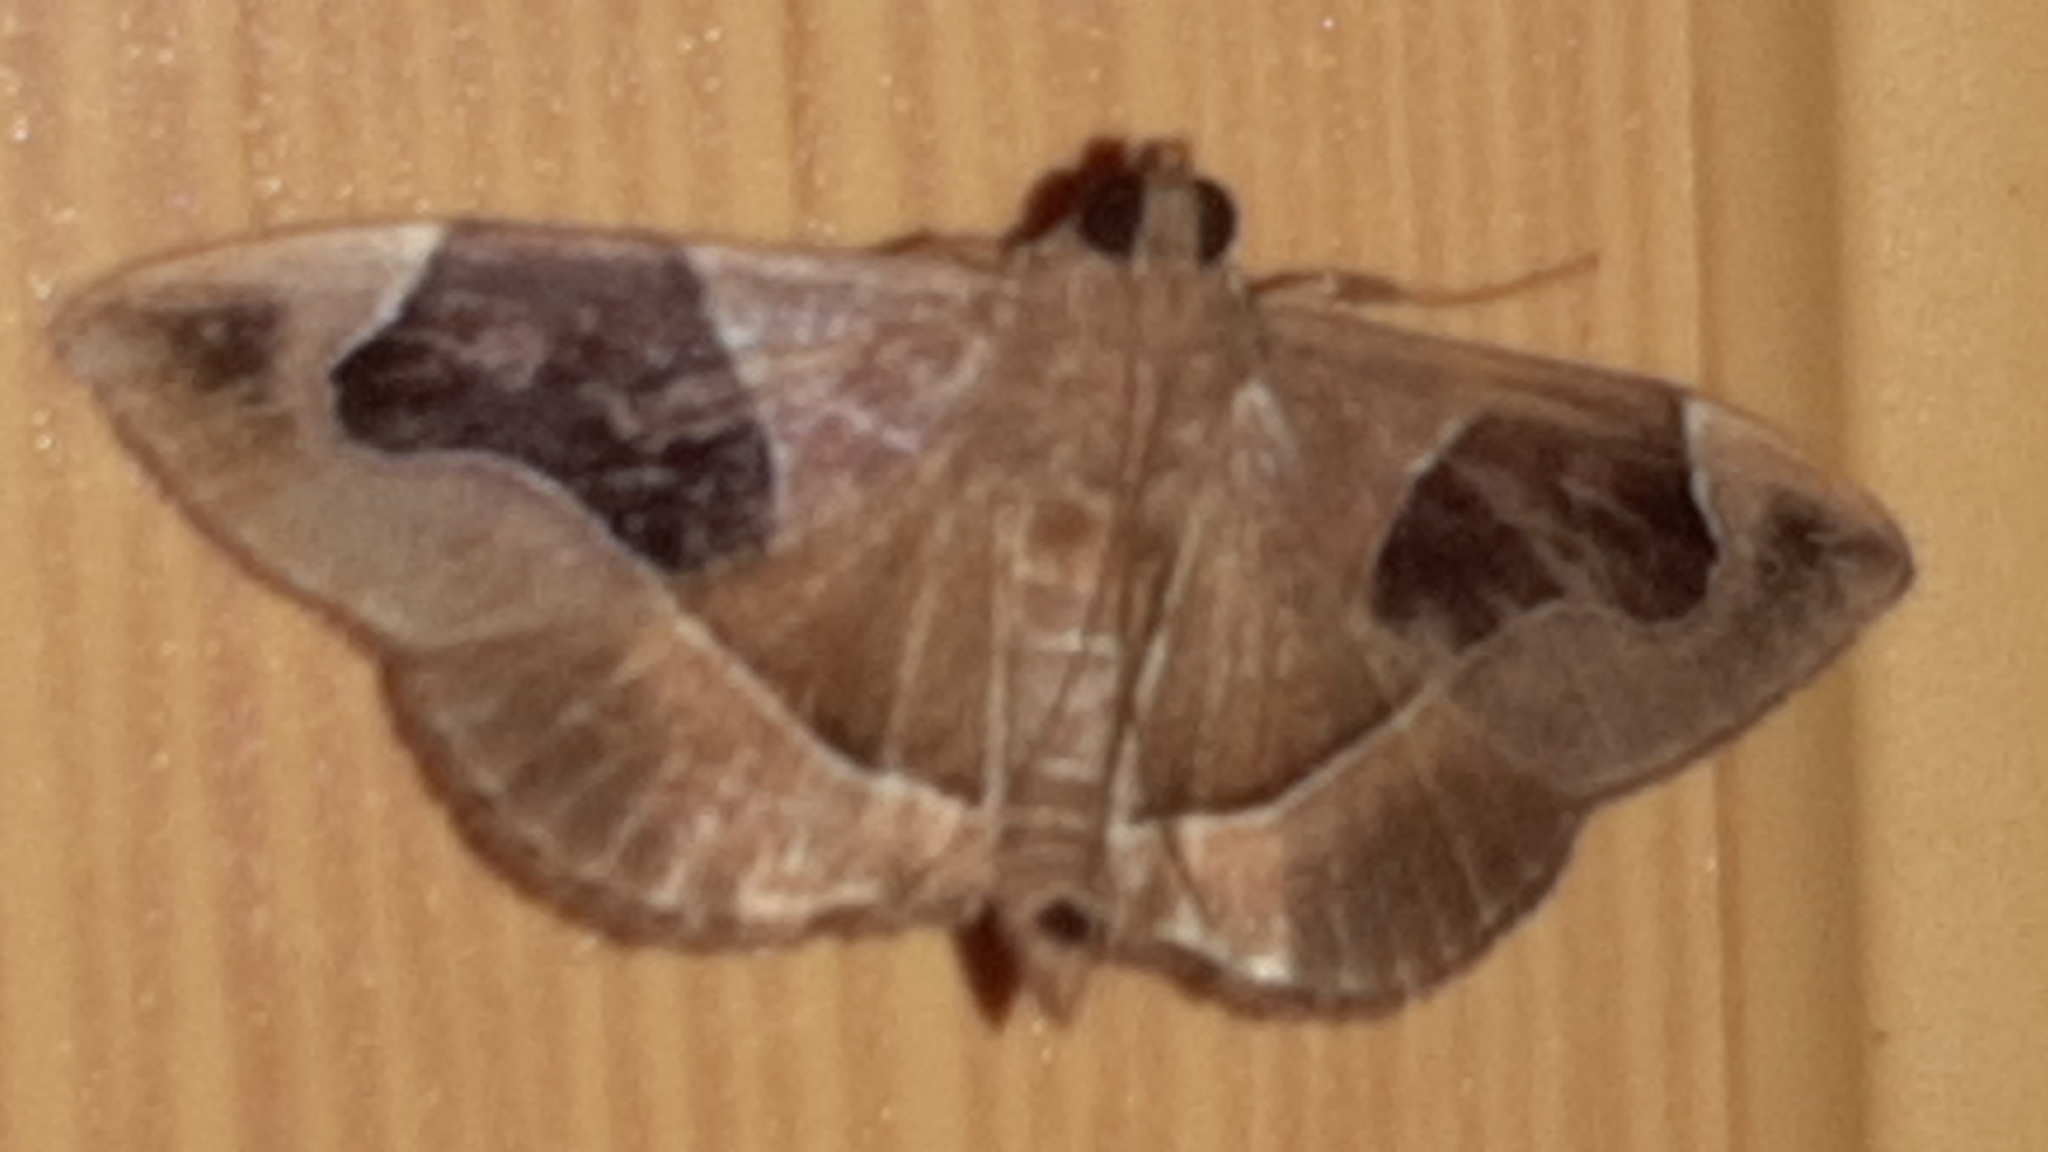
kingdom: Animalia
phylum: Arthropoda
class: Insecta
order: Lepidoptera
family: Crambidae
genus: Lamprosema
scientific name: Lamprosema
